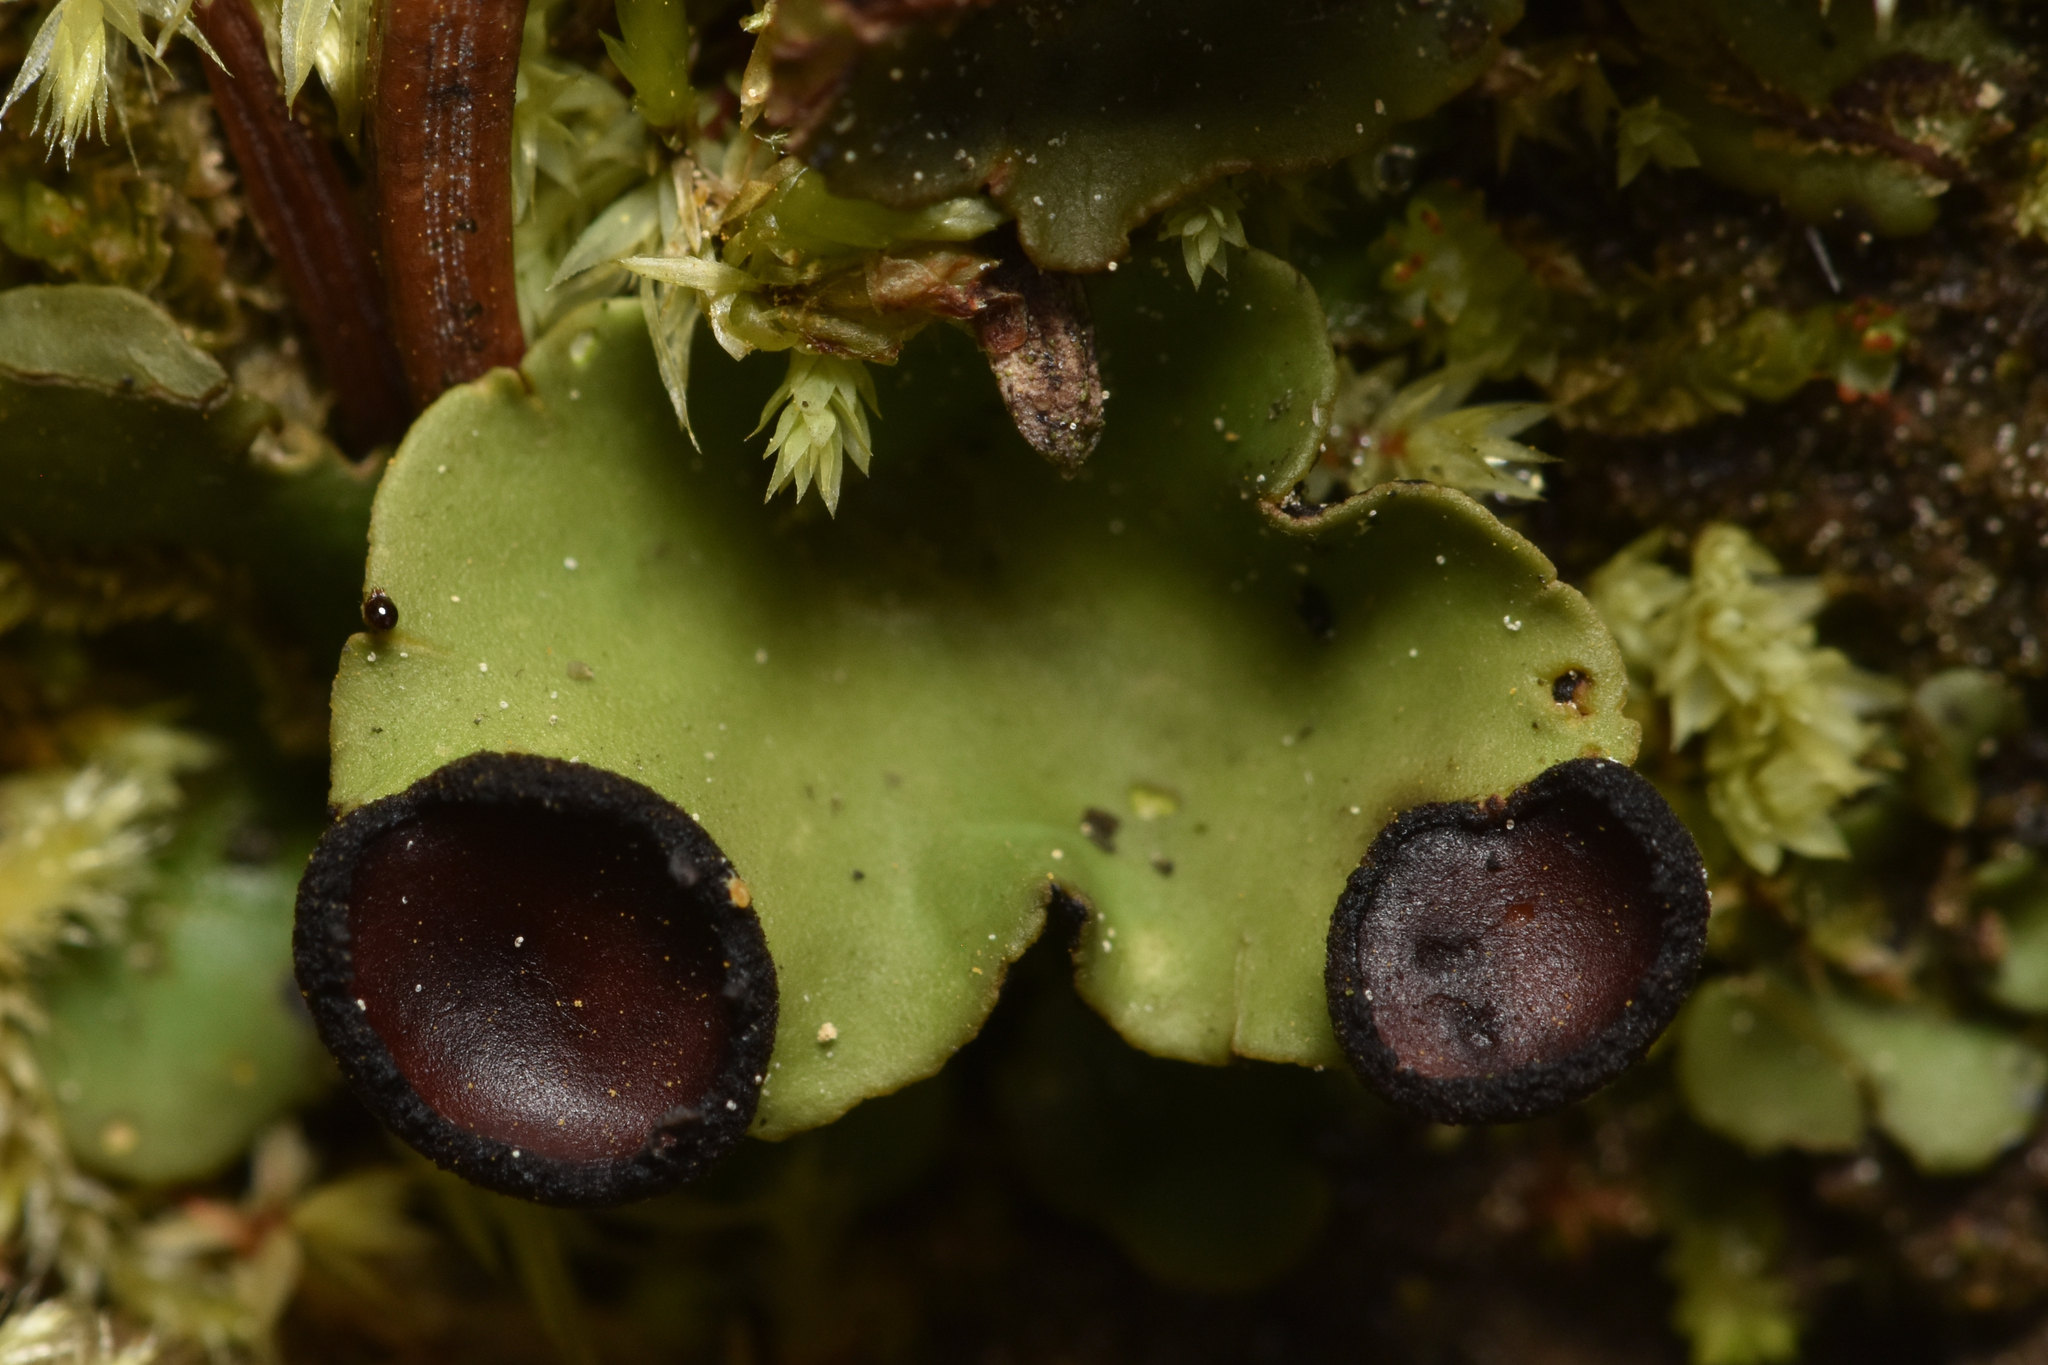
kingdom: Fungi
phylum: Ascomycota
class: Lecanoromycetes
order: Peltigerales
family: Peltigeraceae
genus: Peltigera
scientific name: Peltigera venosa
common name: Pixie gowns lichen
